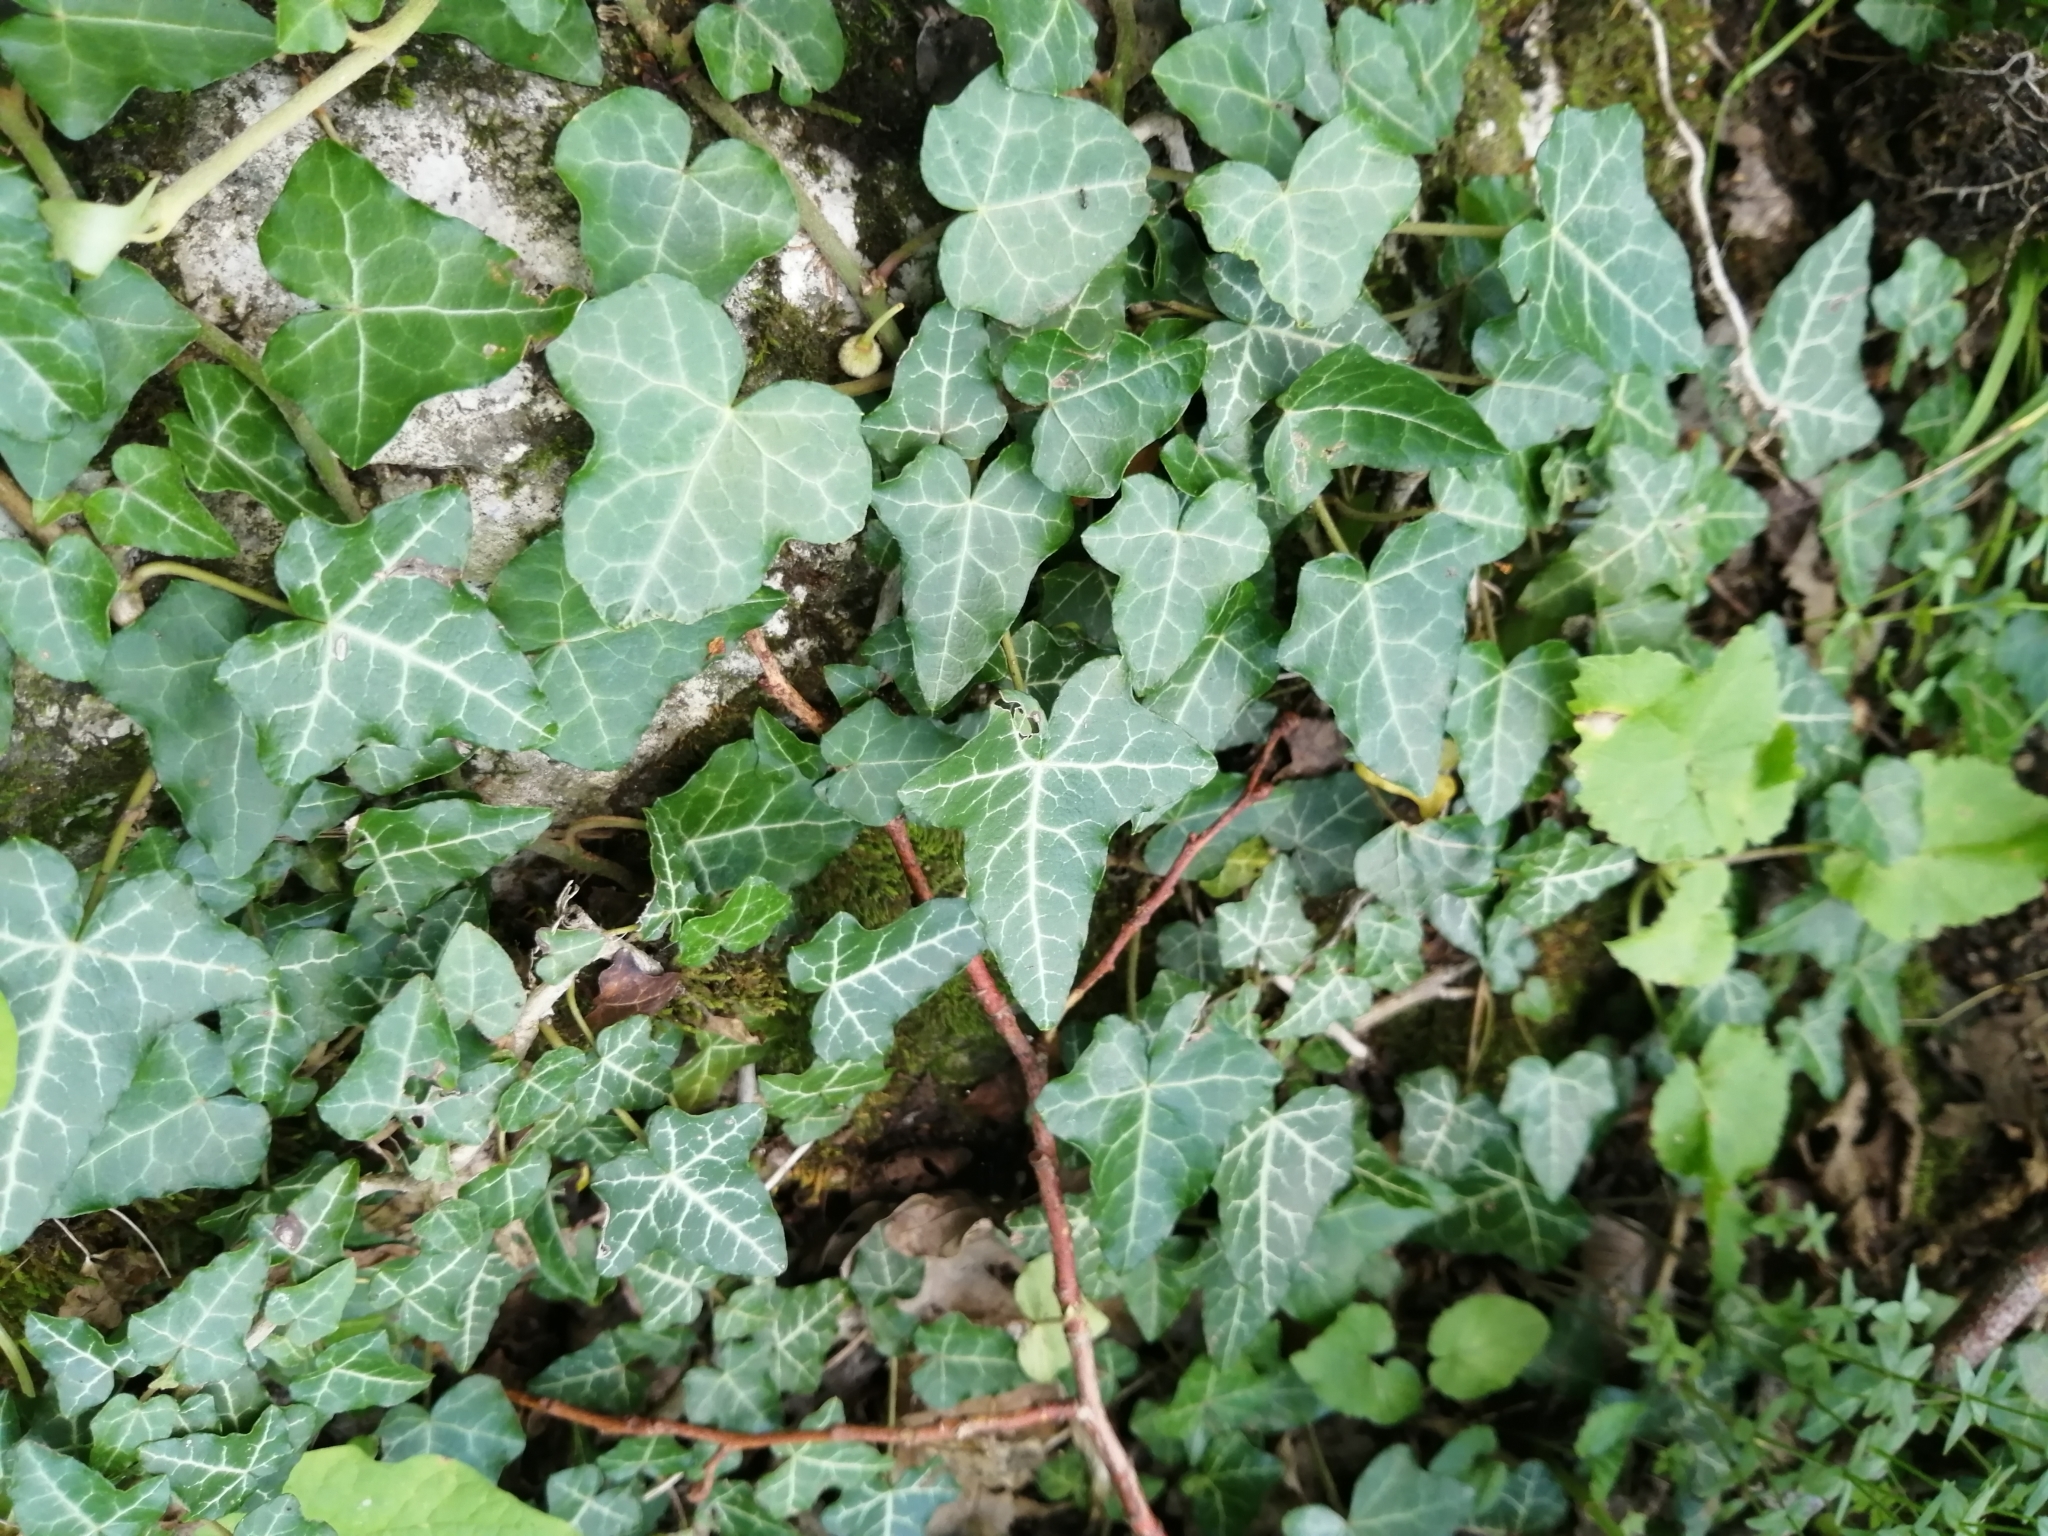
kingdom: Plantae
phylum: Tracheophyta
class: Magnoliopsida
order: Apiales
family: Araliaceae
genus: Hedera
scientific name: Hedera helix
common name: Ivy
